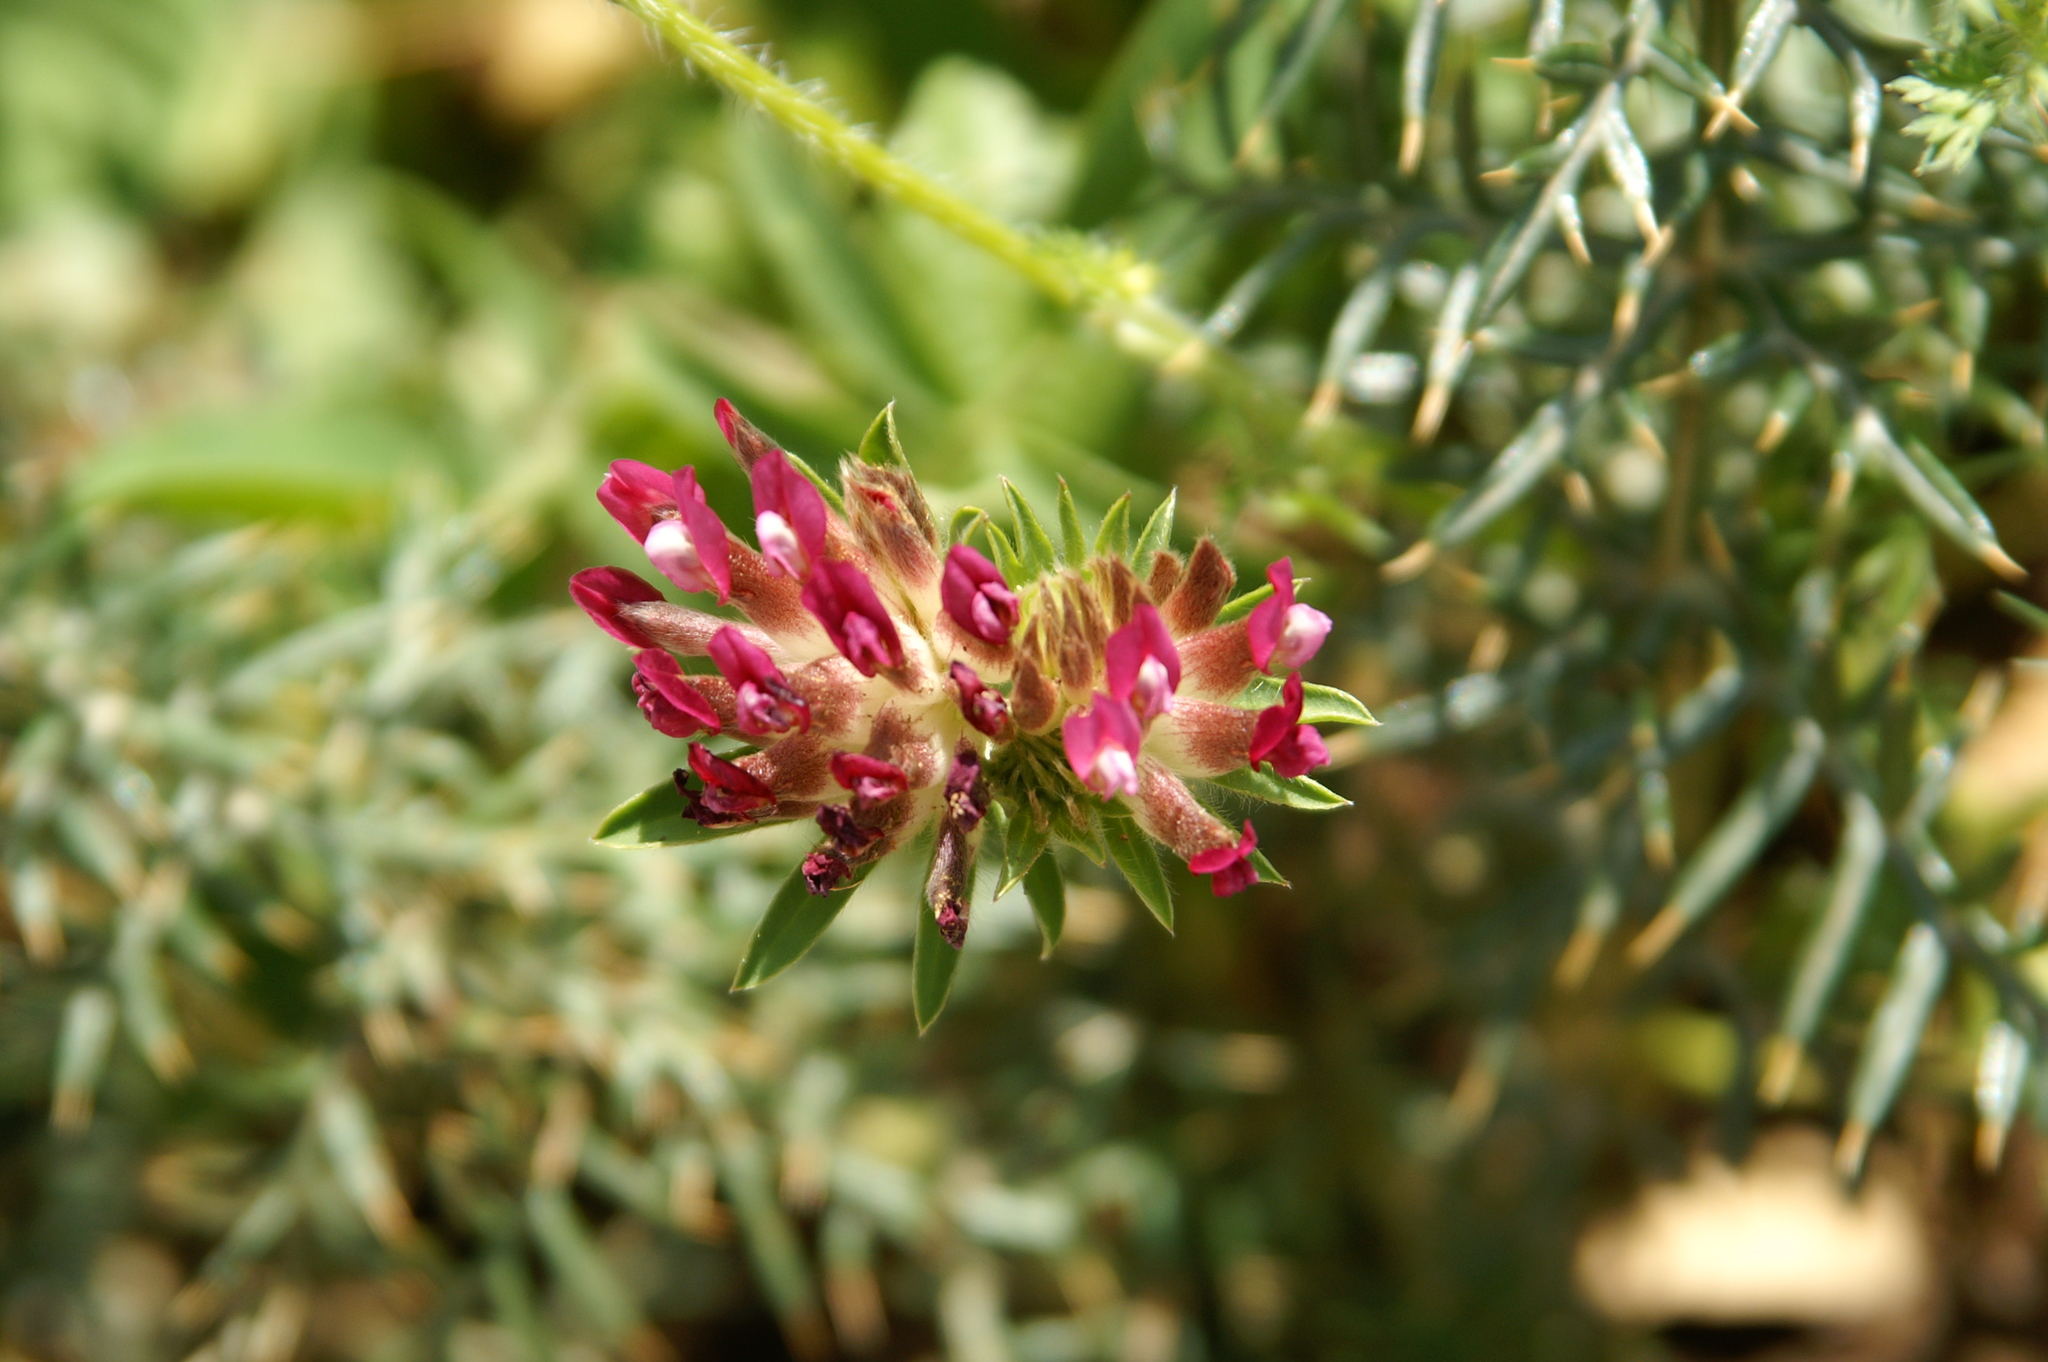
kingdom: Plantae
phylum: Tracheophyta
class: Magnoliopsida
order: Fabales
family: Fabaceae
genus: Anthyllis
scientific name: Anthyllis vulneraria
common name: Kidney vetch
